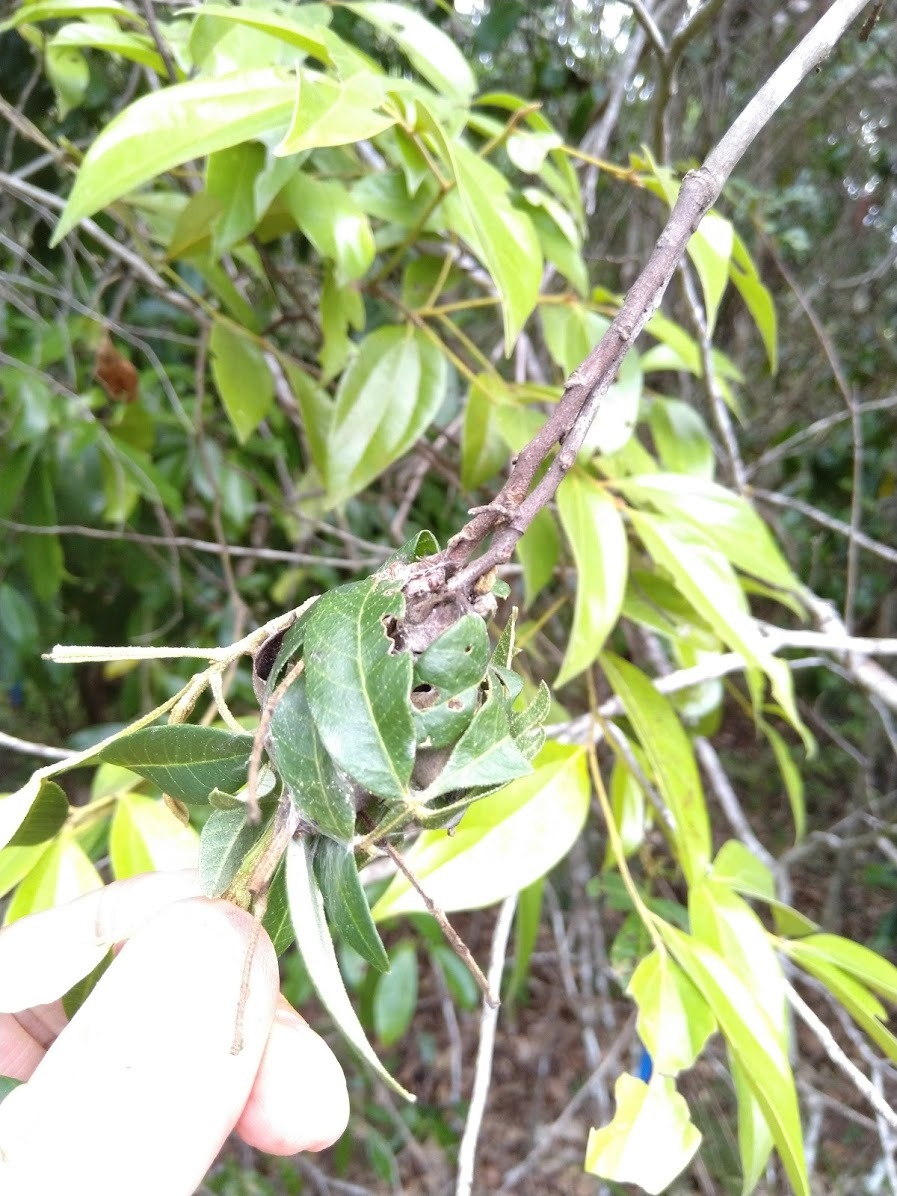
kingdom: Plantae
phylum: Tracheophyta
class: Magnoliopsida
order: Sapindales
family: Sapindaceae
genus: Cossinia
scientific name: Cossinia australiana
